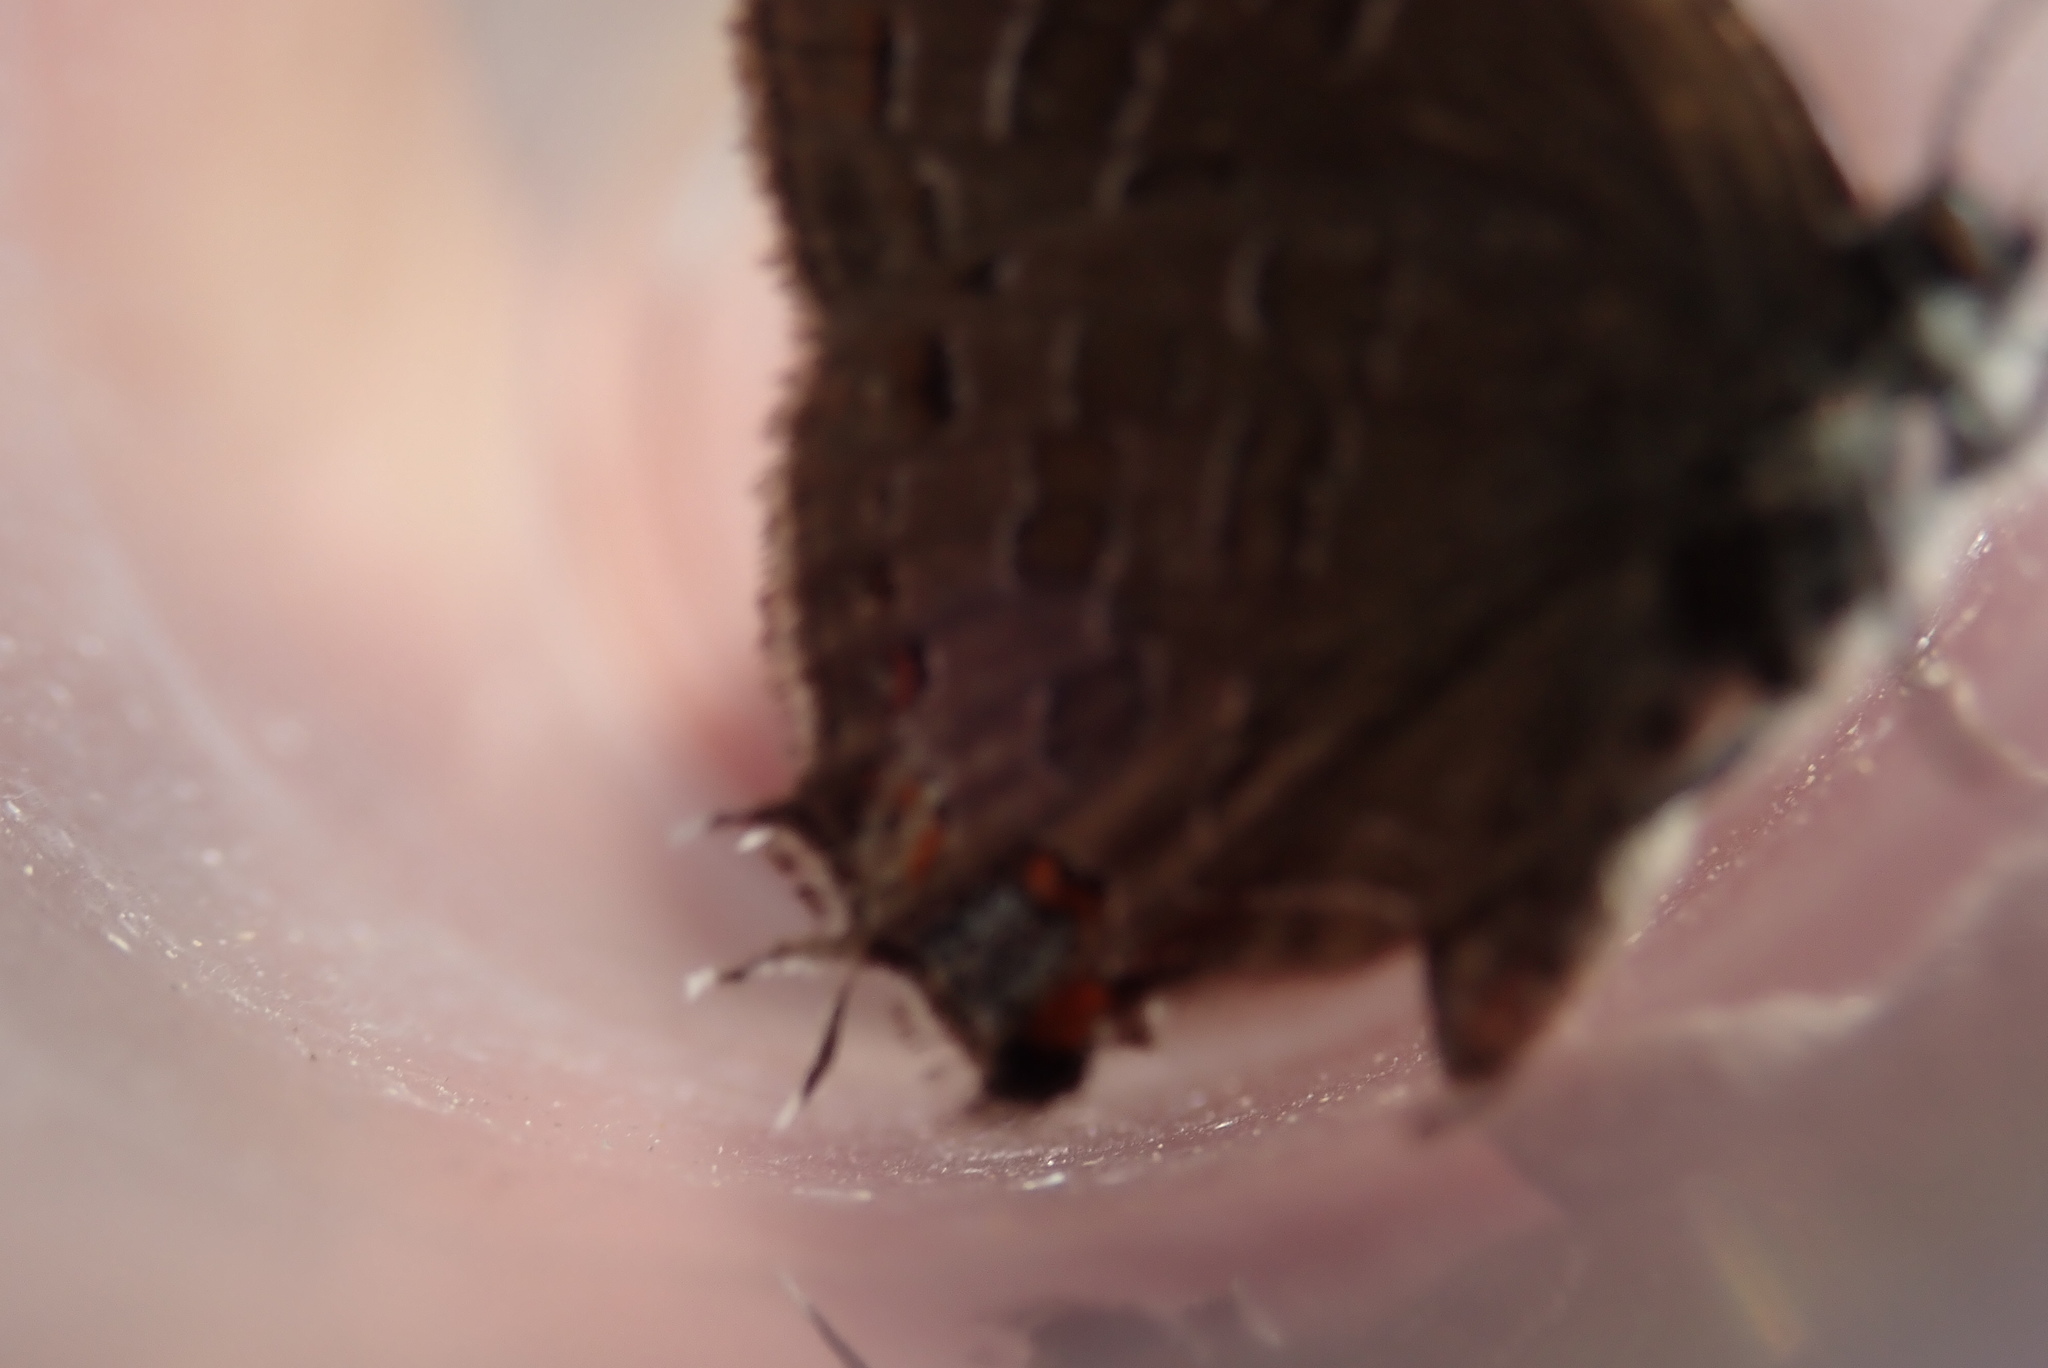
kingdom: Animalia
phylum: Arthropoda
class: Insecta
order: Lepidoptera
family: Lycaenidae
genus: Satyrium
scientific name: Satyrium liparops
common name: Striped hairstreak
